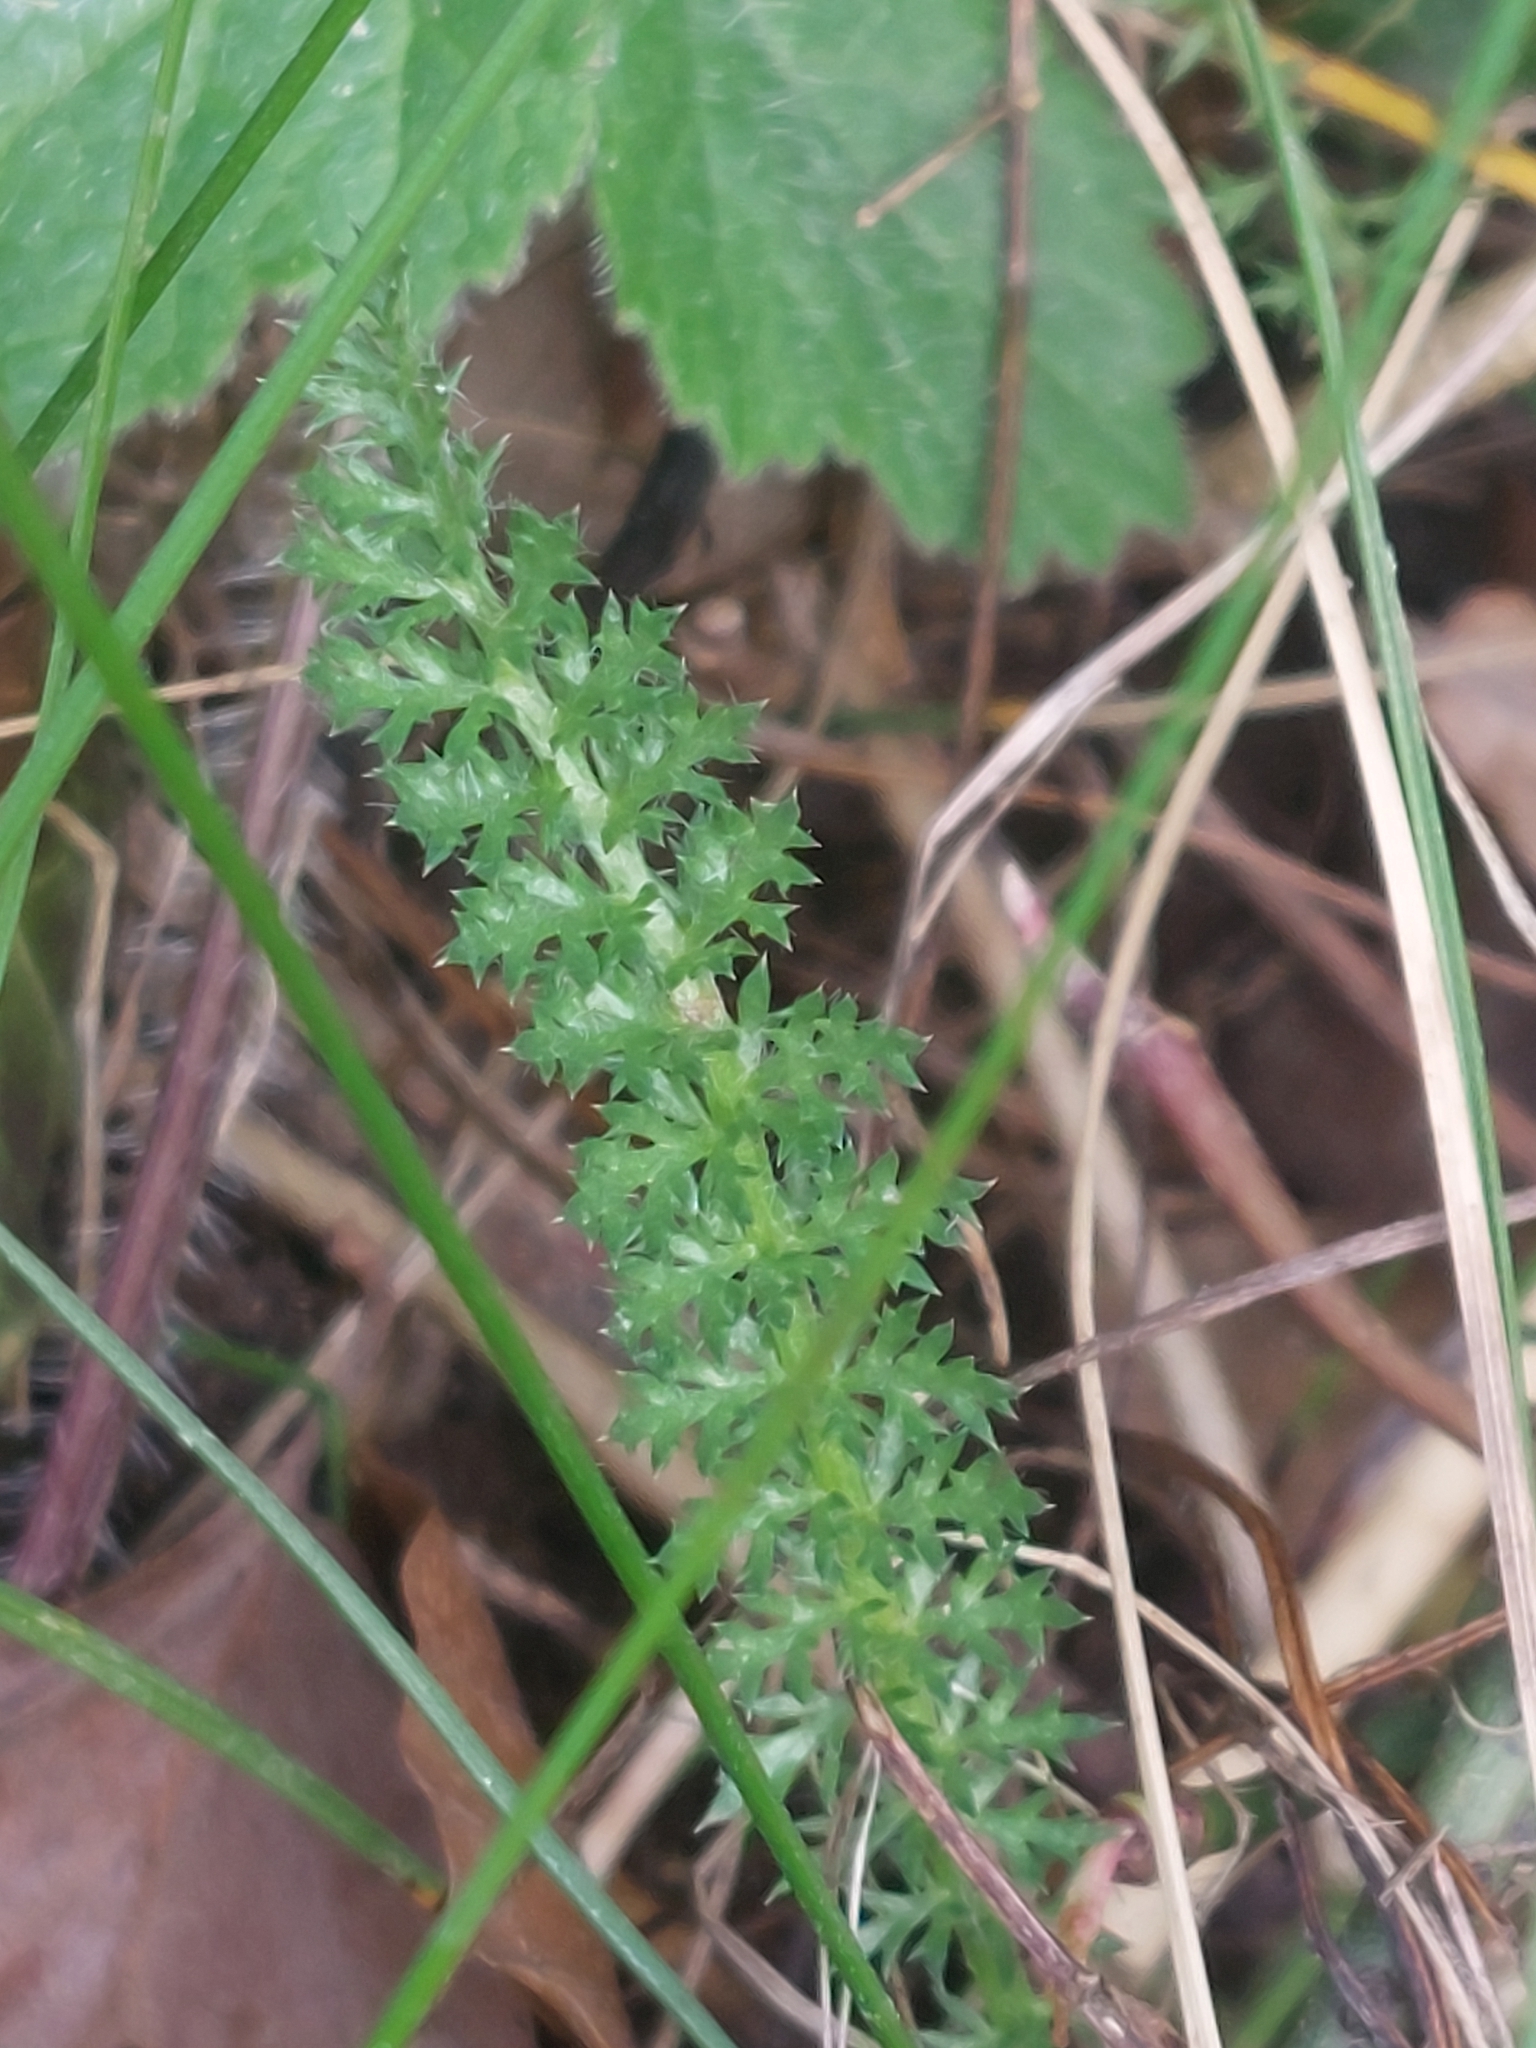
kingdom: Plantae
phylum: Tracheophyta
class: Magnoliopsida
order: Asterales
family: Asteraceae
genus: Achillea
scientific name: Achillea millefolium
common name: Yarrow
